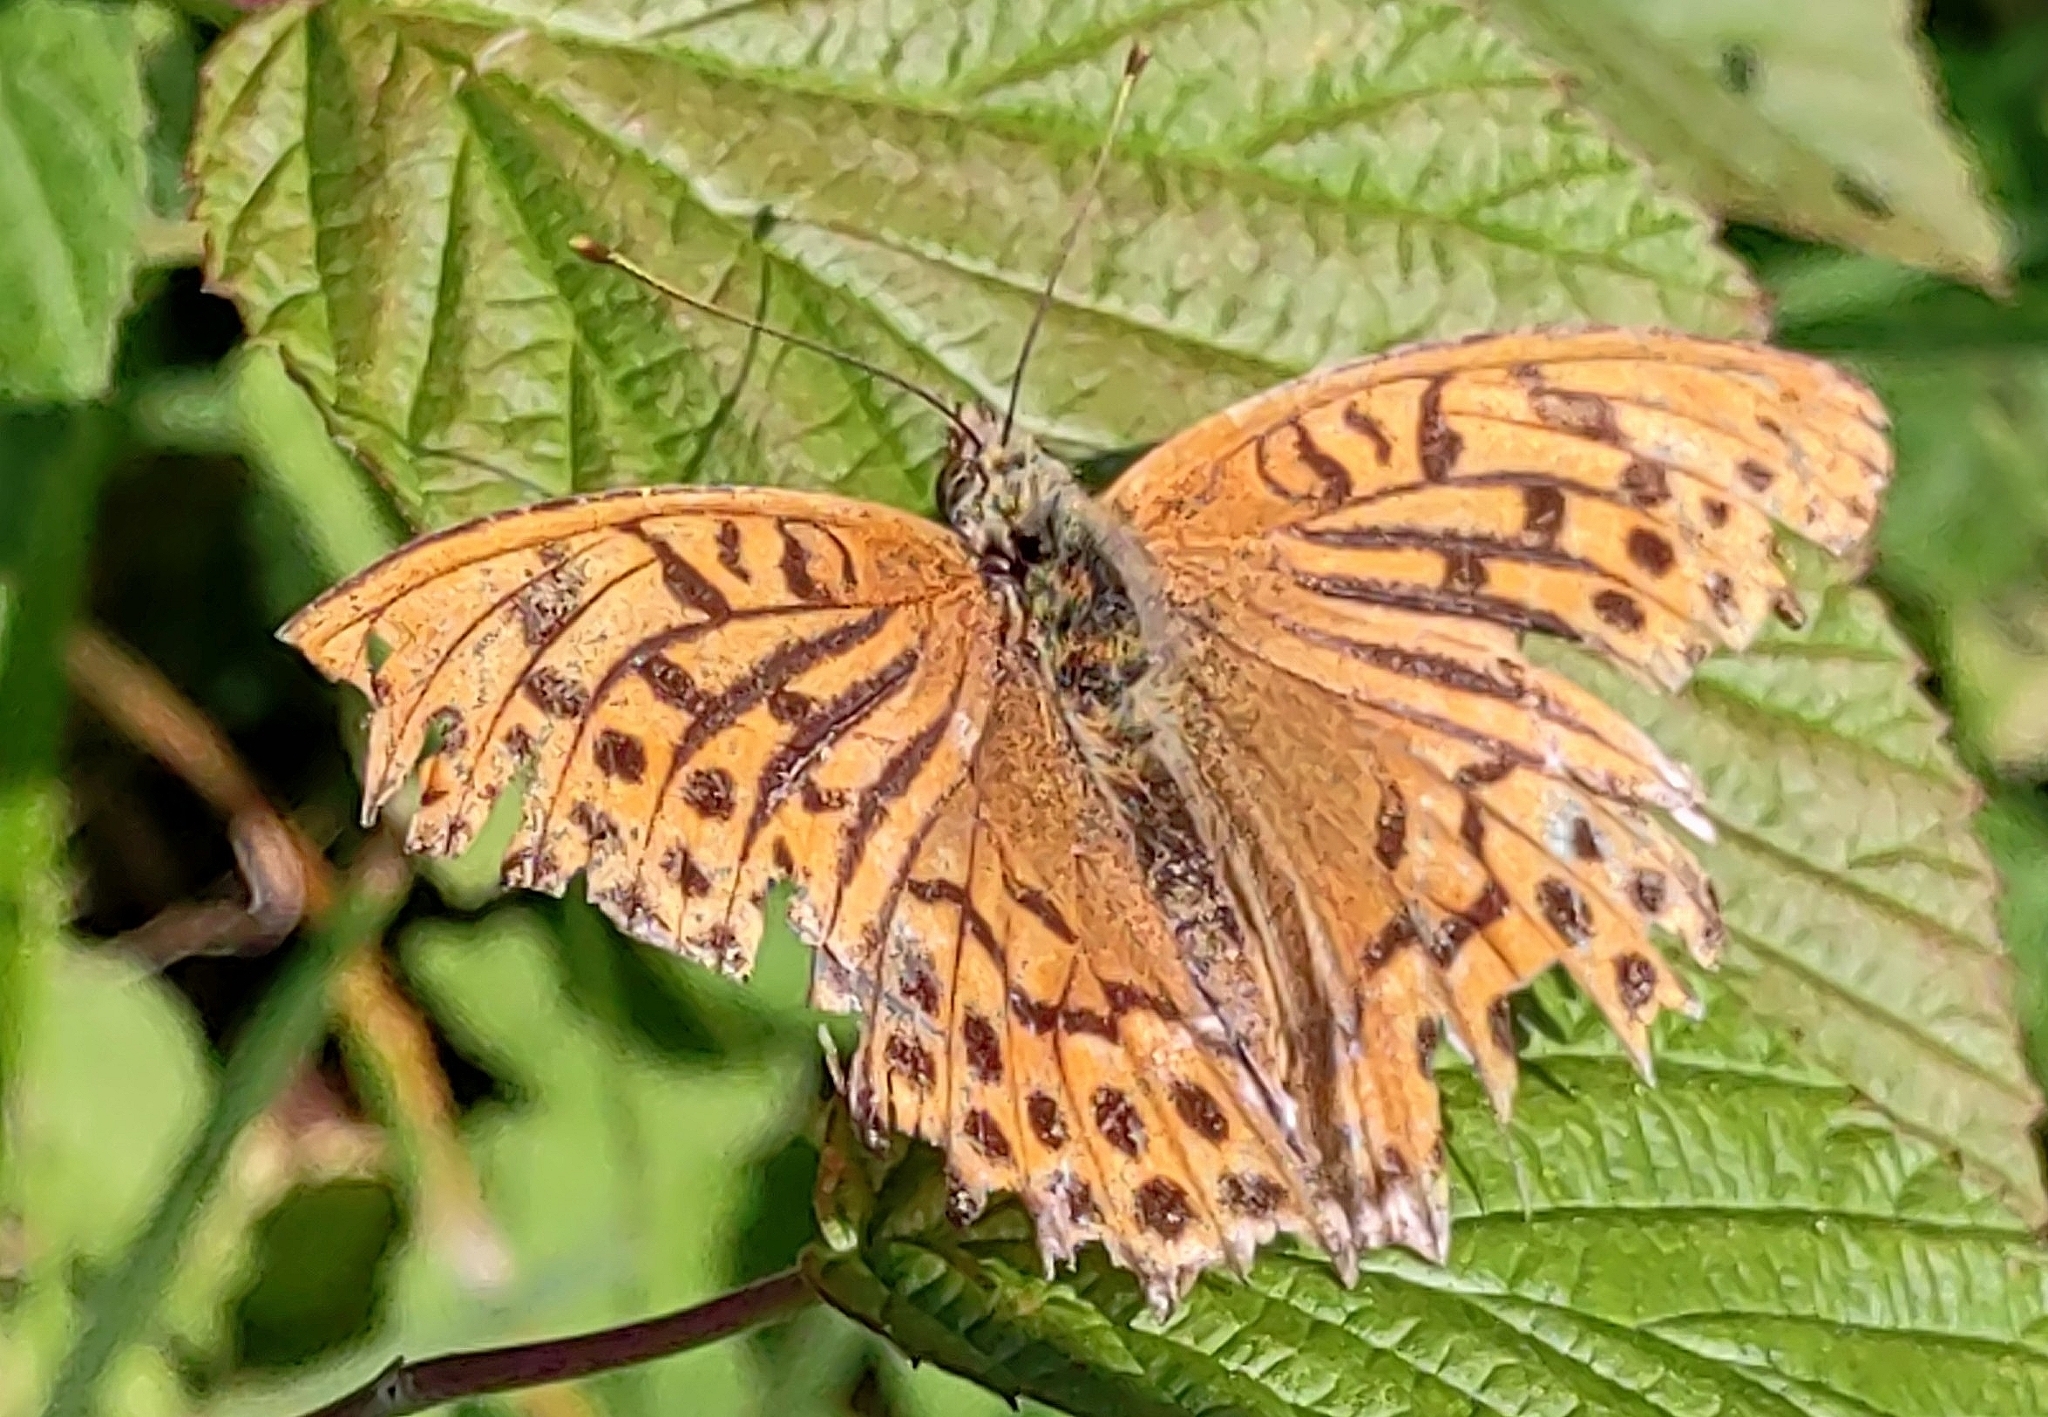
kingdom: Animalia
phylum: Arthropoda
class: Insecta
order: Lepidoptera
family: Nymphalidae
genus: Argynnis
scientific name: Argynnis paphia
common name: Silver-washed fritillary
